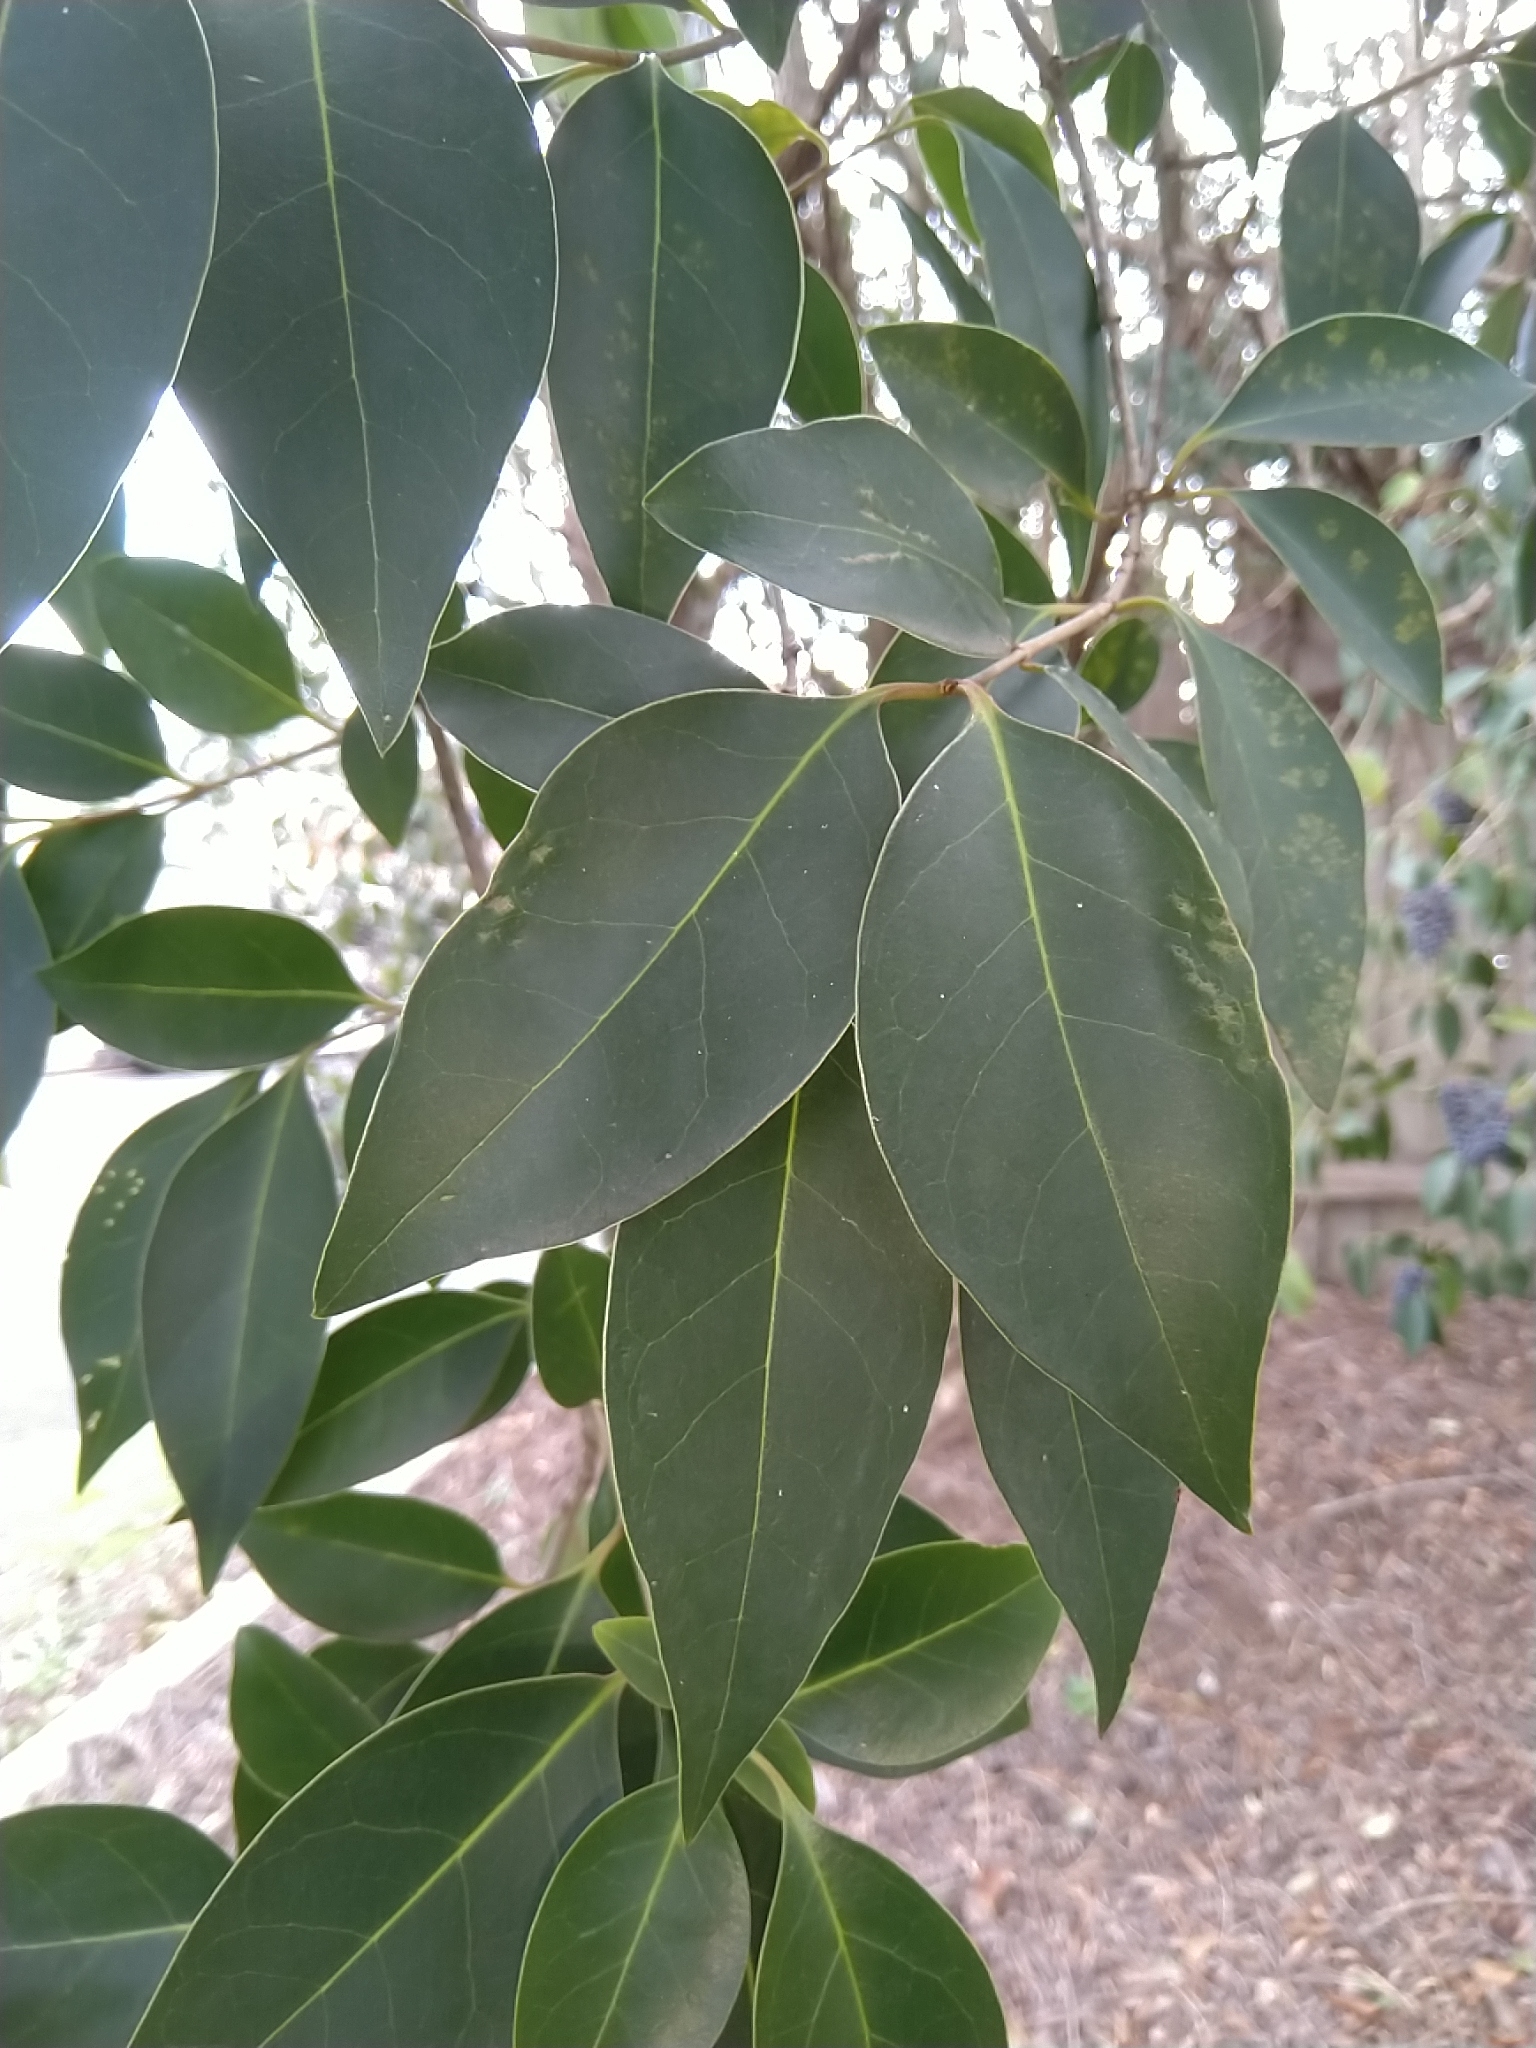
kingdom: Plantae
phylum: Tracheophyta
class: Magnoliopsida
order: Lamiales
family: Oleaceae
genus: Ligustrum
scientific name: Ligustrum lucidum
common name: Glossy privet
